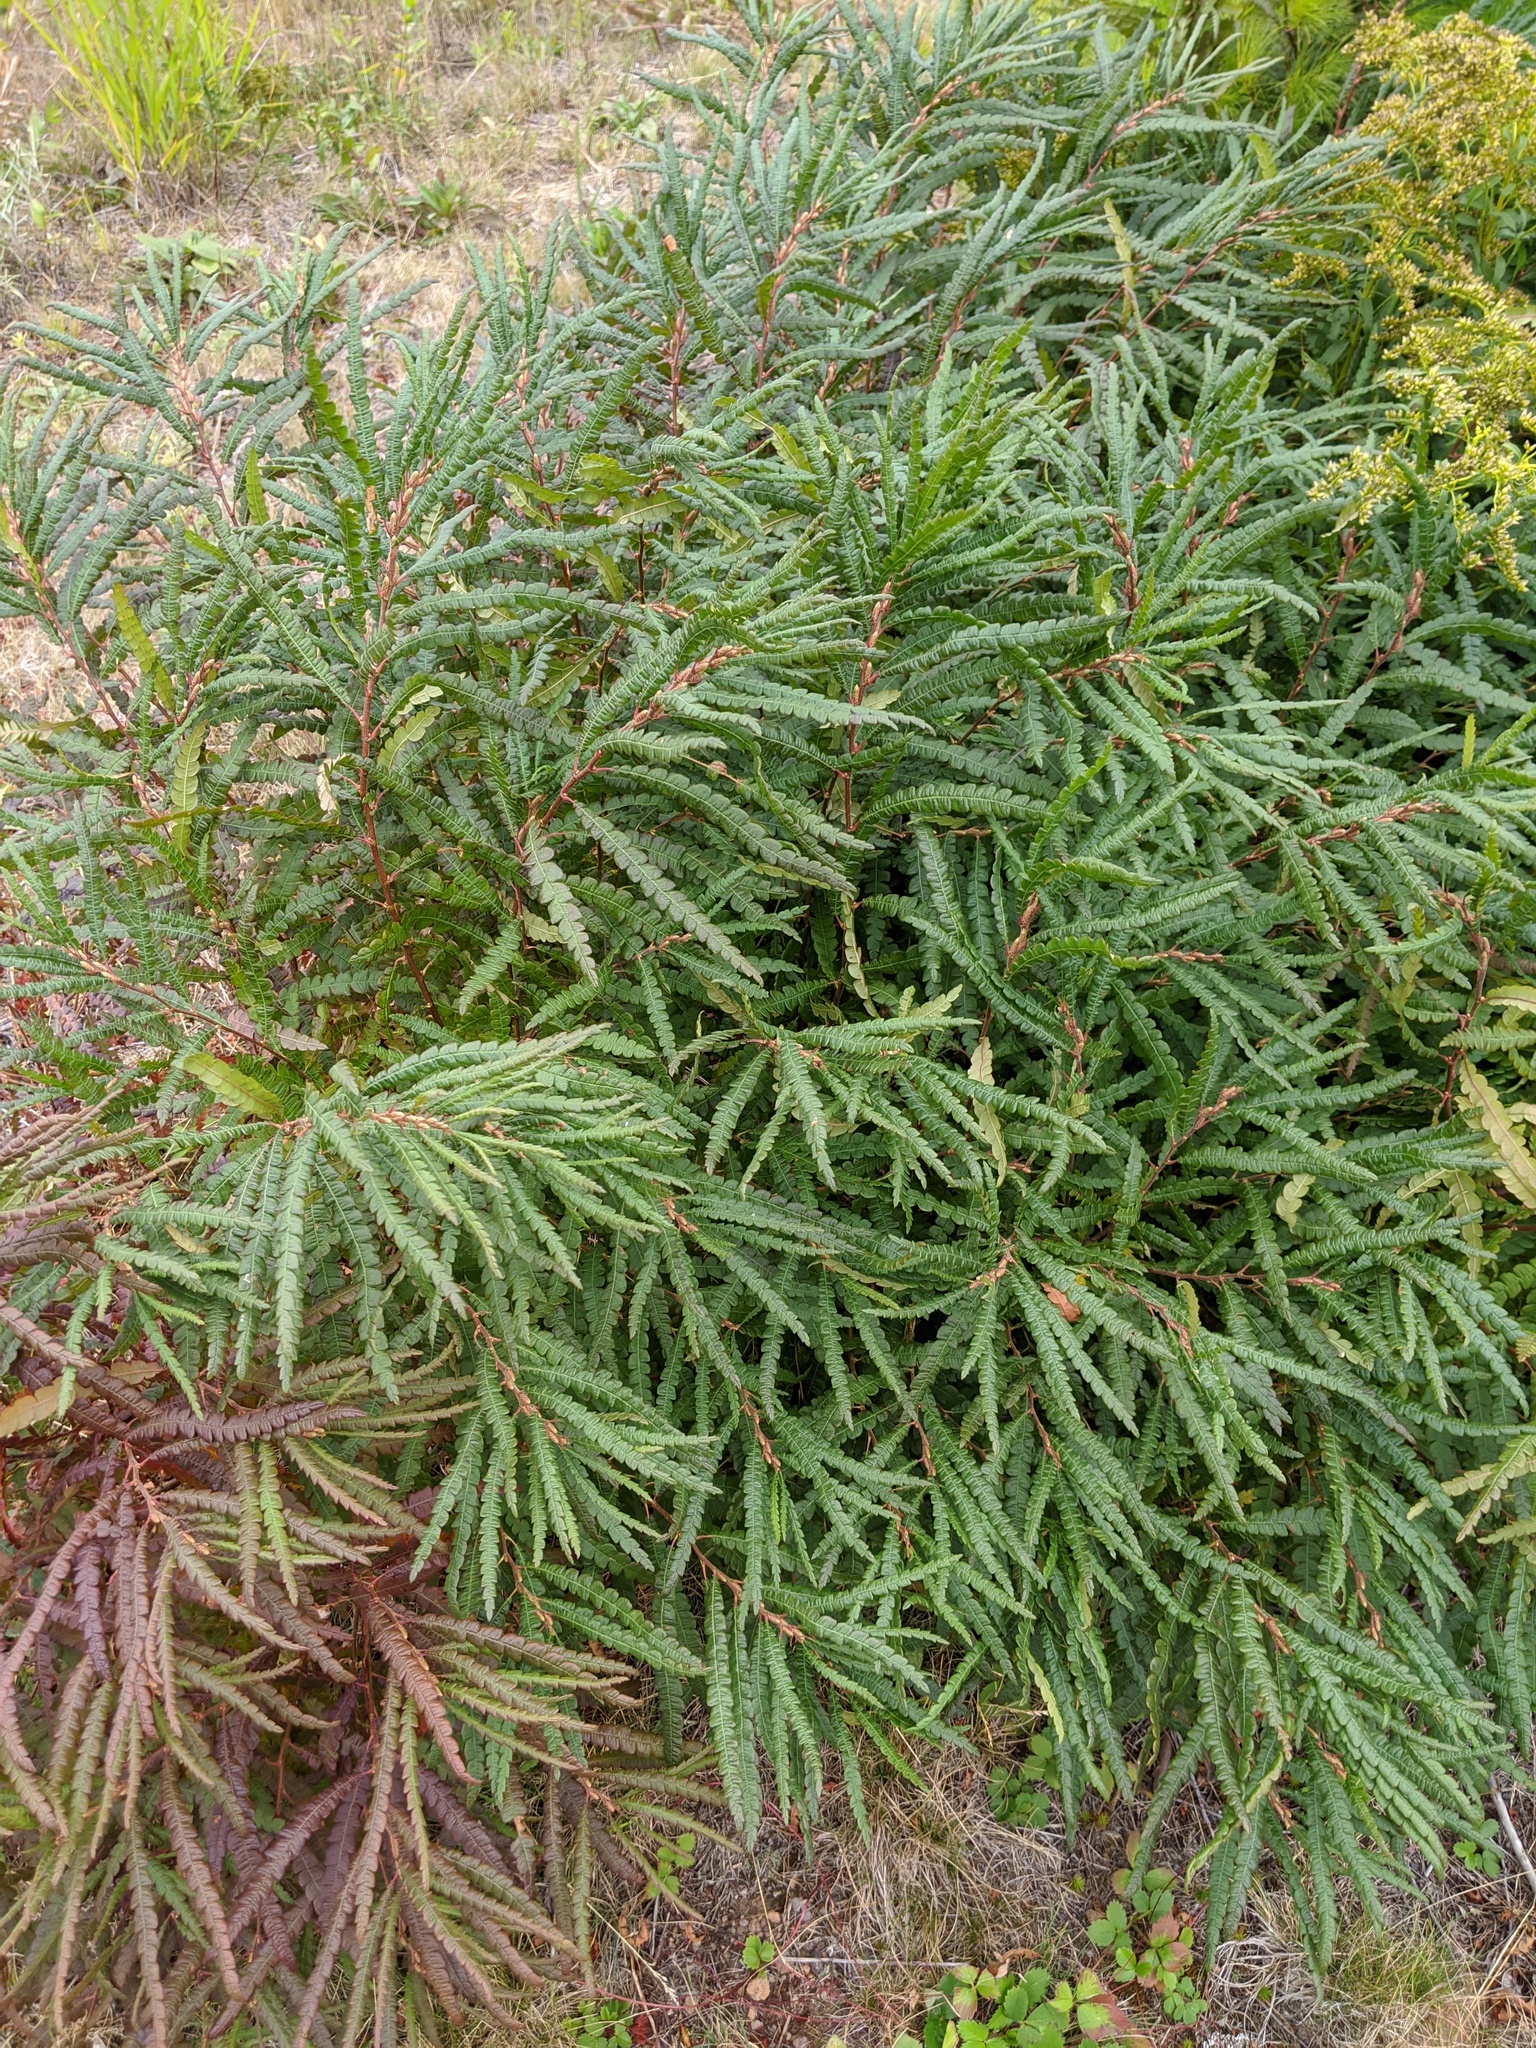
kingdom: Plantae
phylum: Tracheophyta
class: Magnoliopsida
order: Fagales
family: Myricaceae
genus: Comptonia
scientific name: Comptonia peregrina
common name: Sweet-fern
